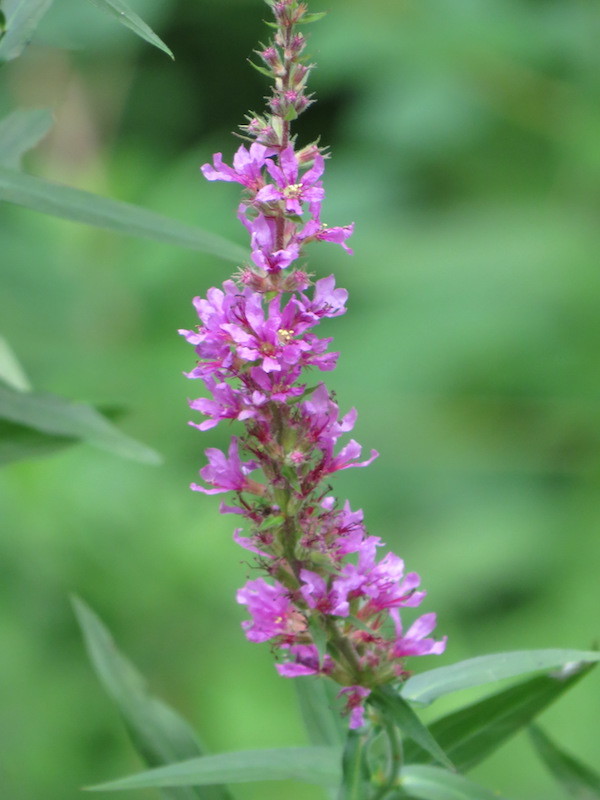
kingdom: Plantae
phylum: Tracheophyta
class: Magnoliopsida
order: Myrtales
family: Lythraceae
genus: Lythrum
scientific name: Lythrum salicaria
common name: Purple loosestrife
